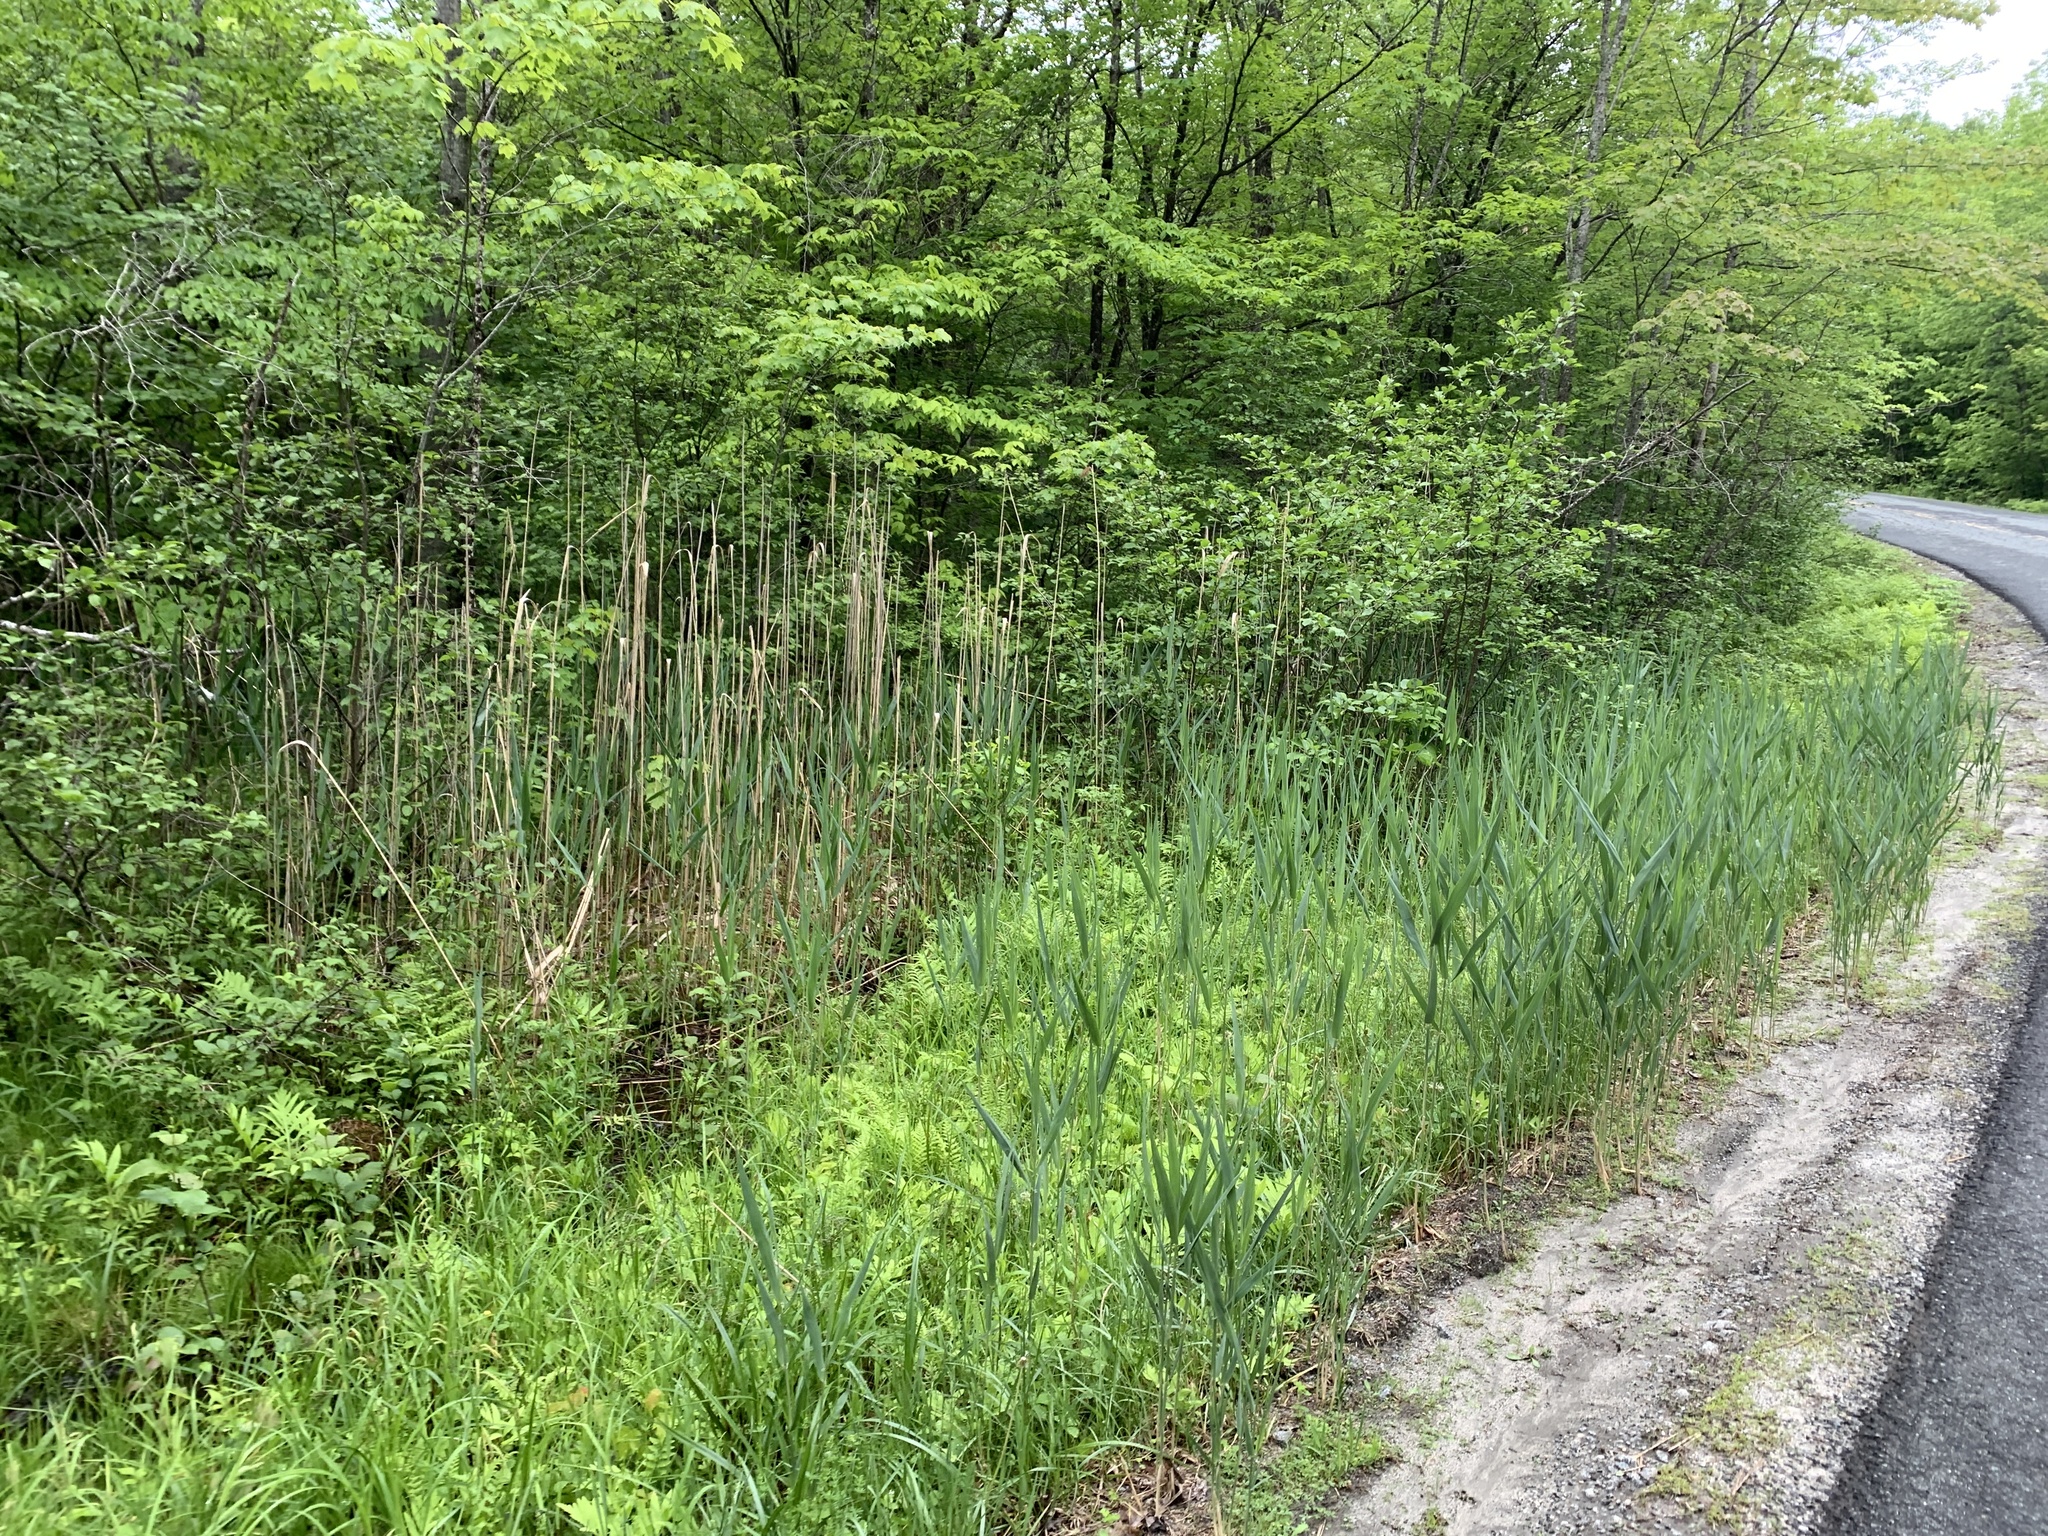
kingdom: Plantae
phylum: Tracheophyta
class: Liliopsida
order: Poales
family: Poaceae
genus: Phragmites
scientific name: Phragmites australis
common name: Common reed
